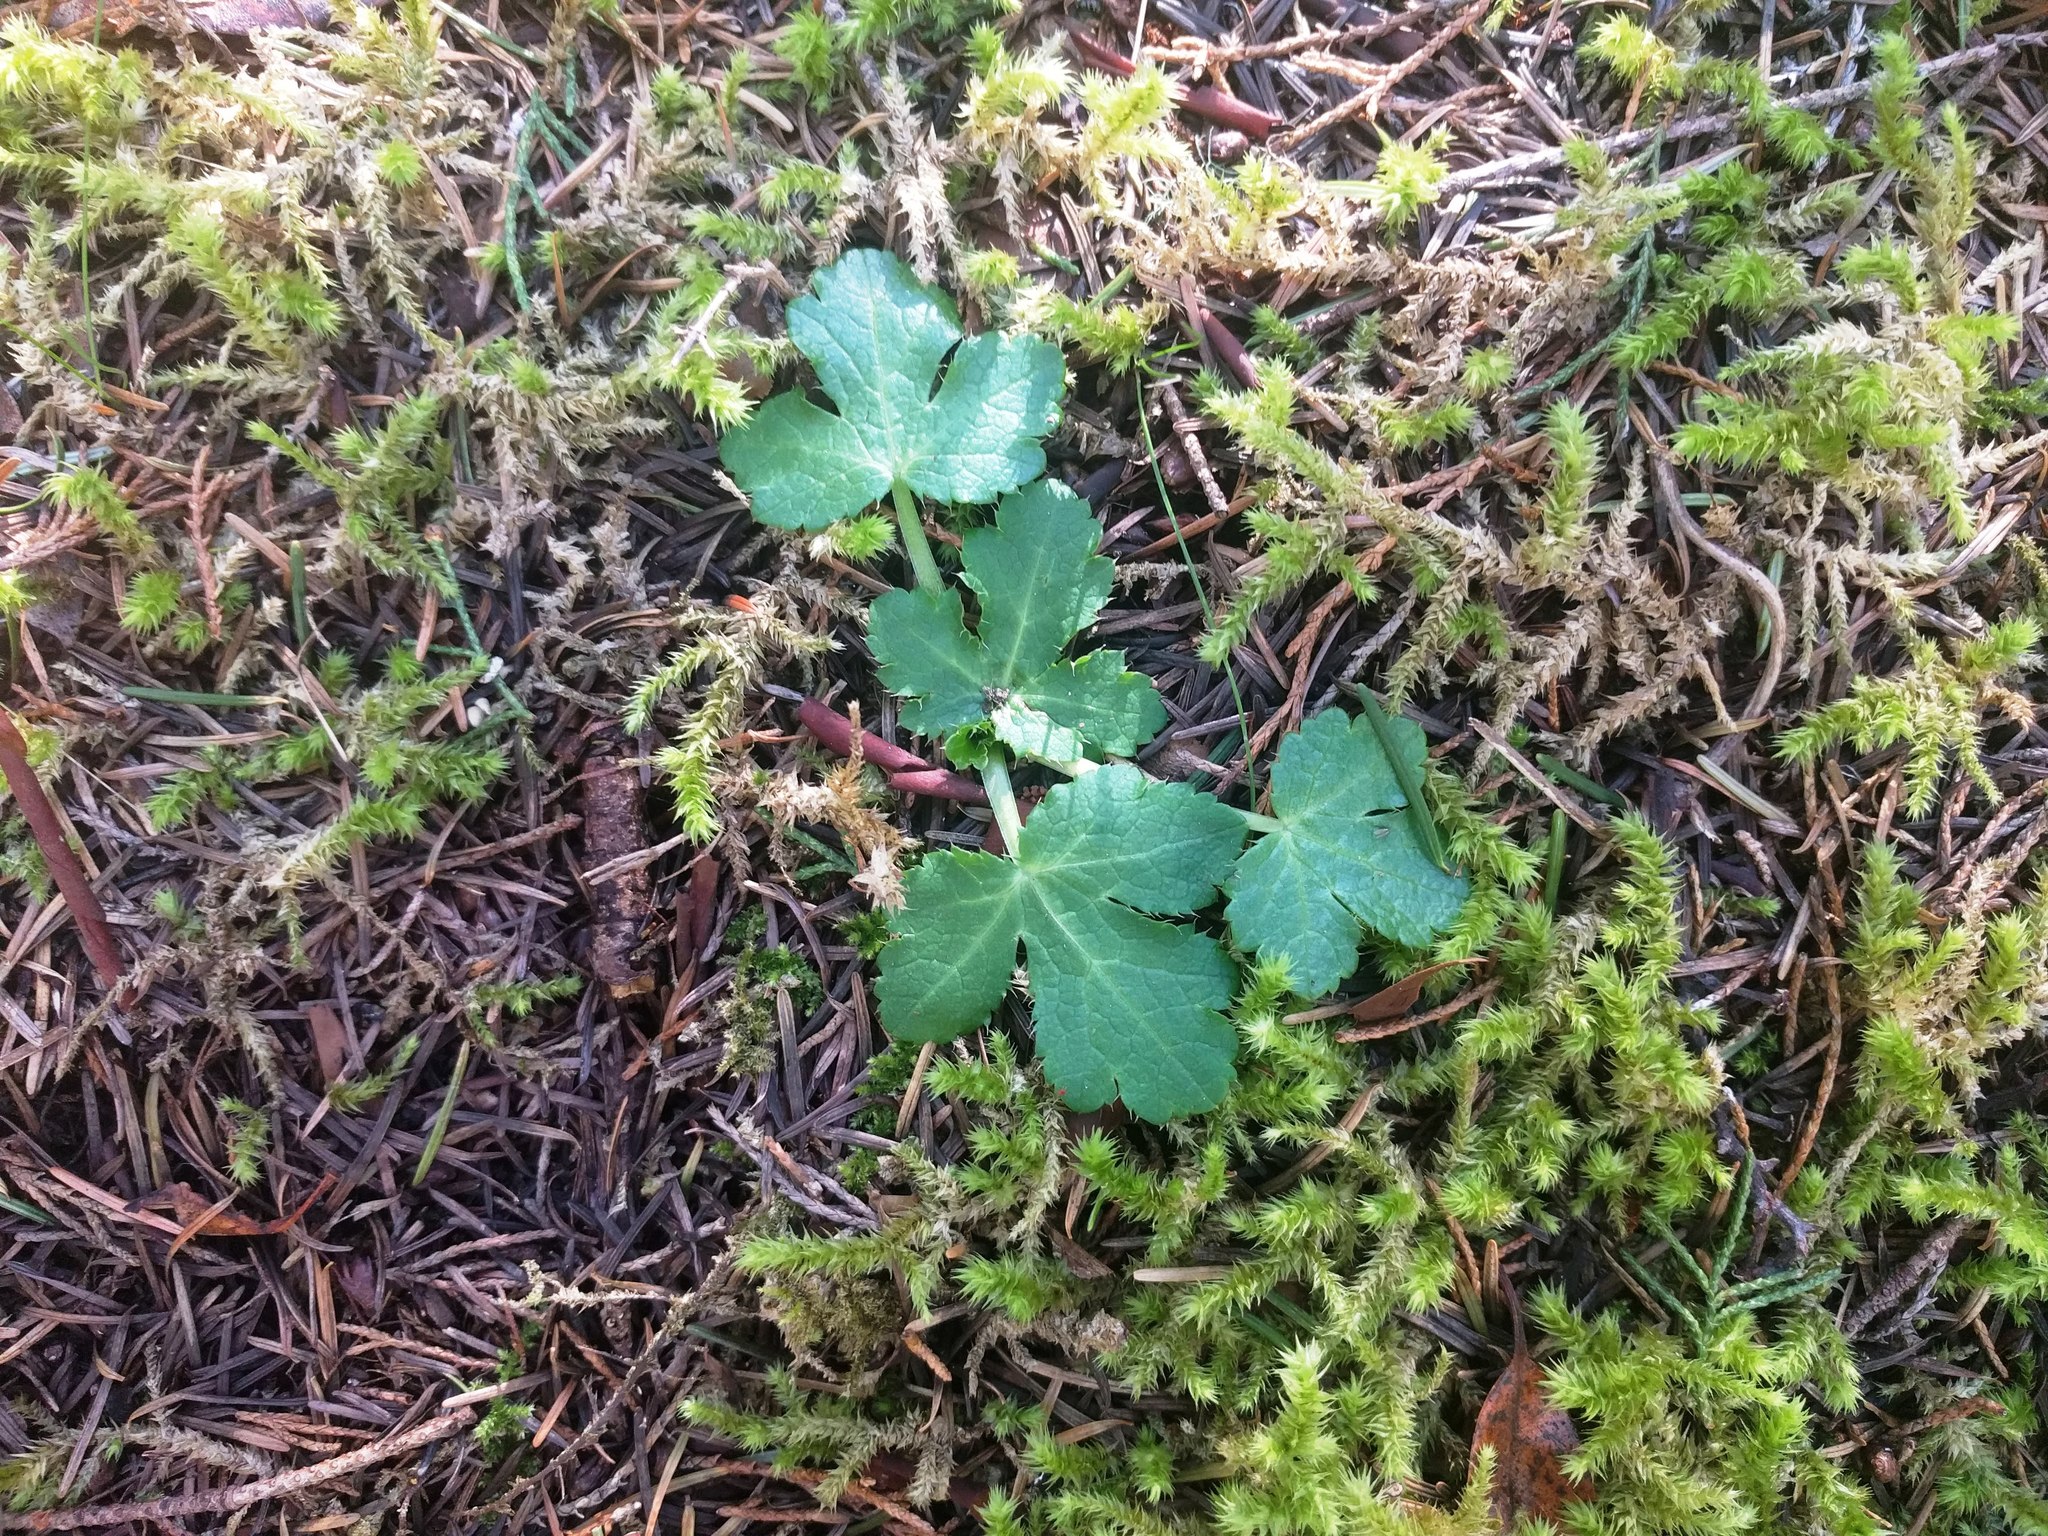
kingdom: Plantae
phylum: Tracheophyta
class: Magnoliopsida
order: Apiales
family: Apiaceae
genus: Sanicula
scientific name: Sanicula crassicaulis
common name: Western snakeroot
